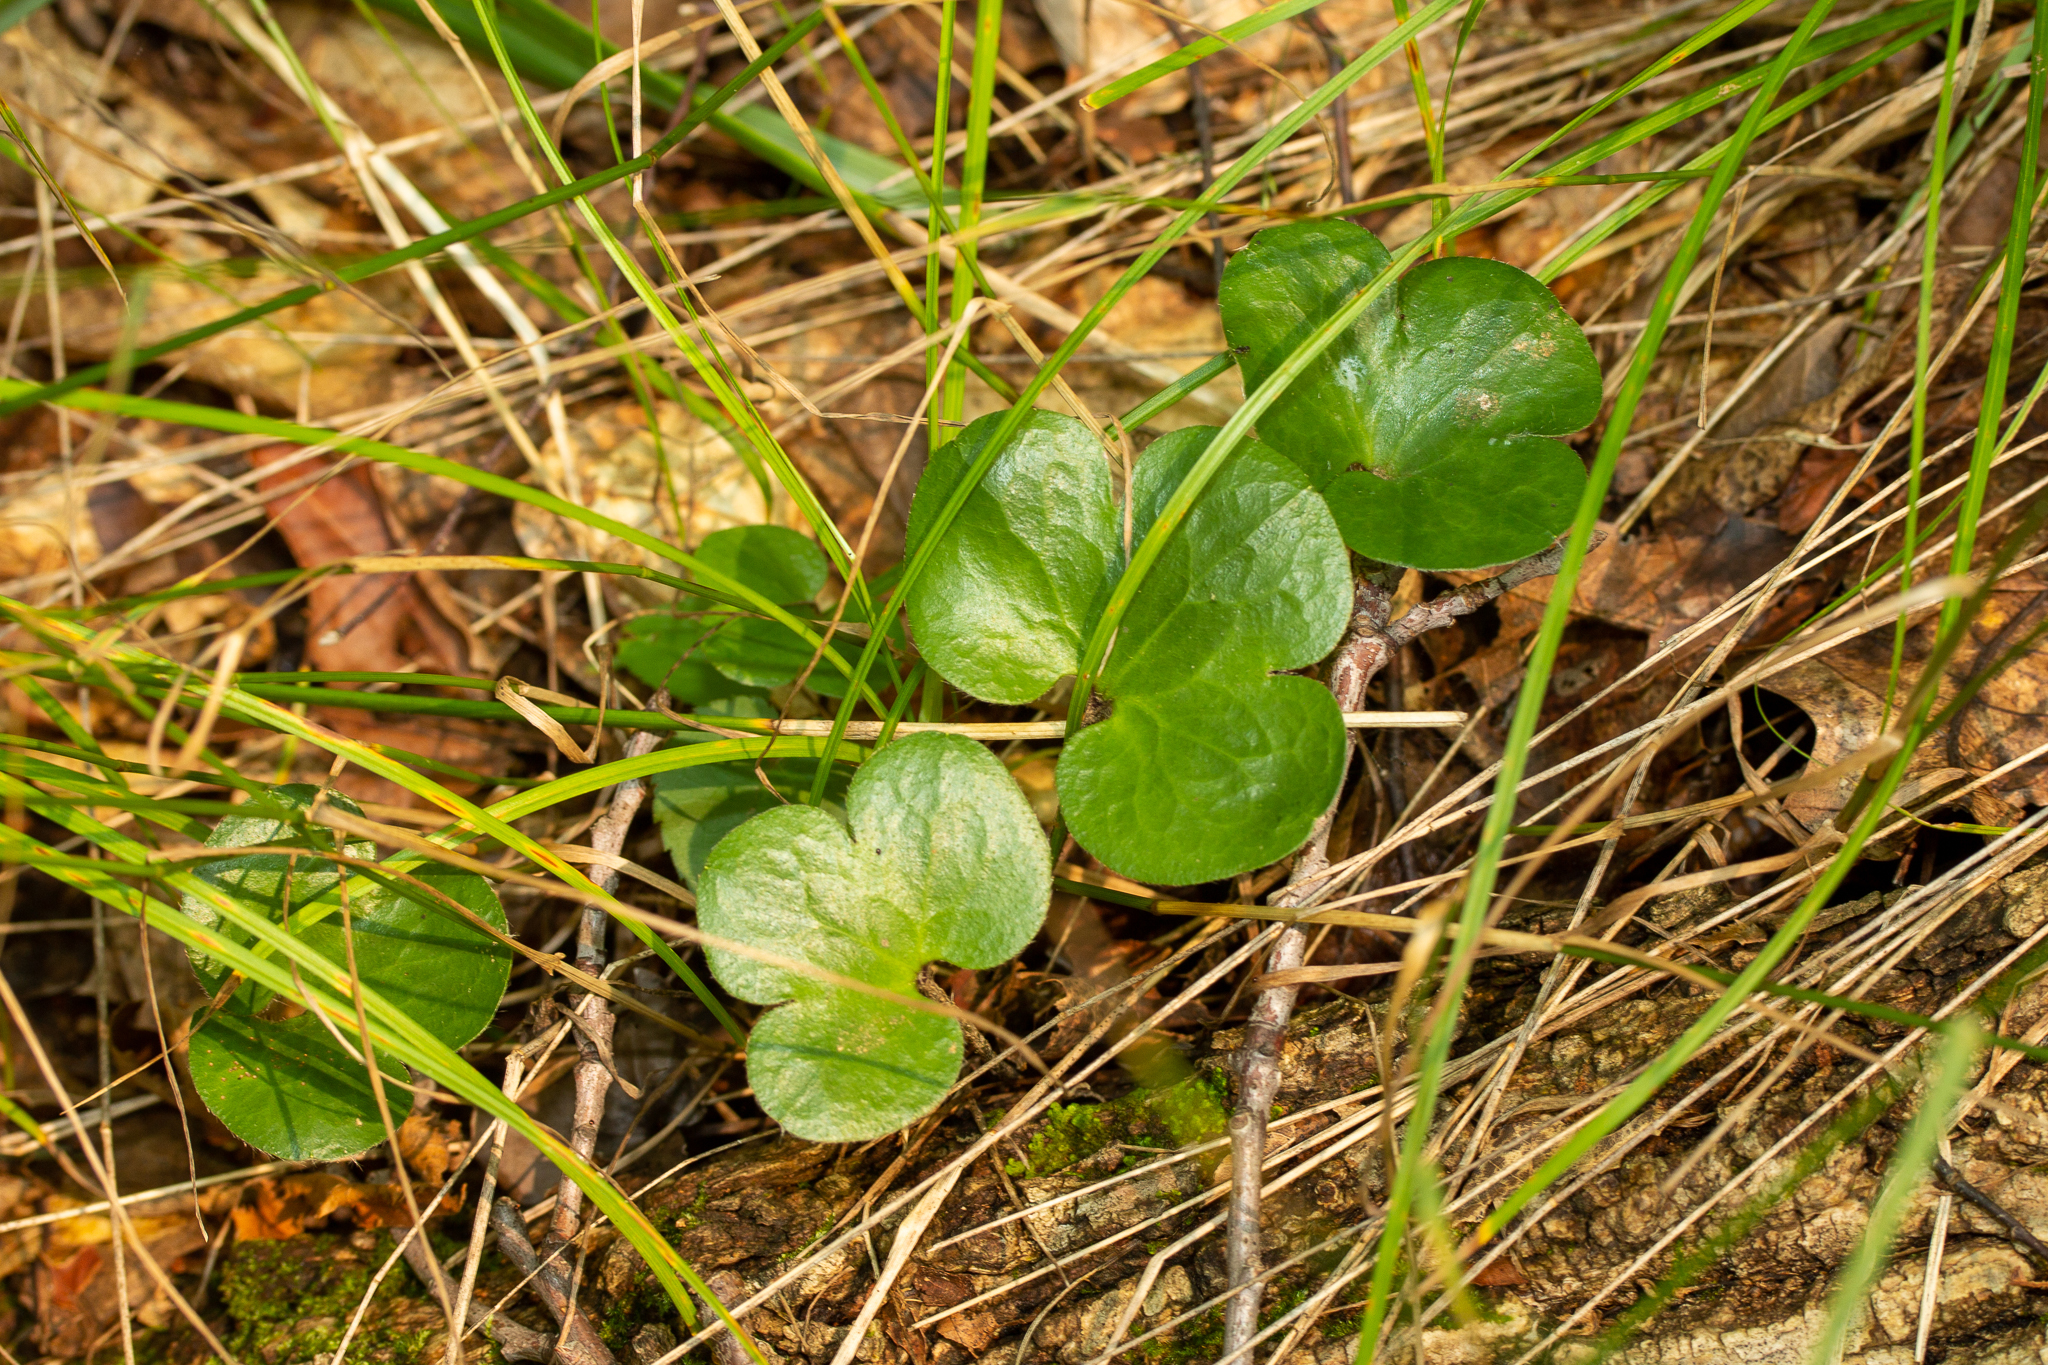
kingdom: Plantae
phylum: Tracheophyta
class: Magnoliopsida
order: Ranunculales
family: Ranunculaceae
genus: Hepatica
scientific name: Hepatica americana
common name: American hepatica
